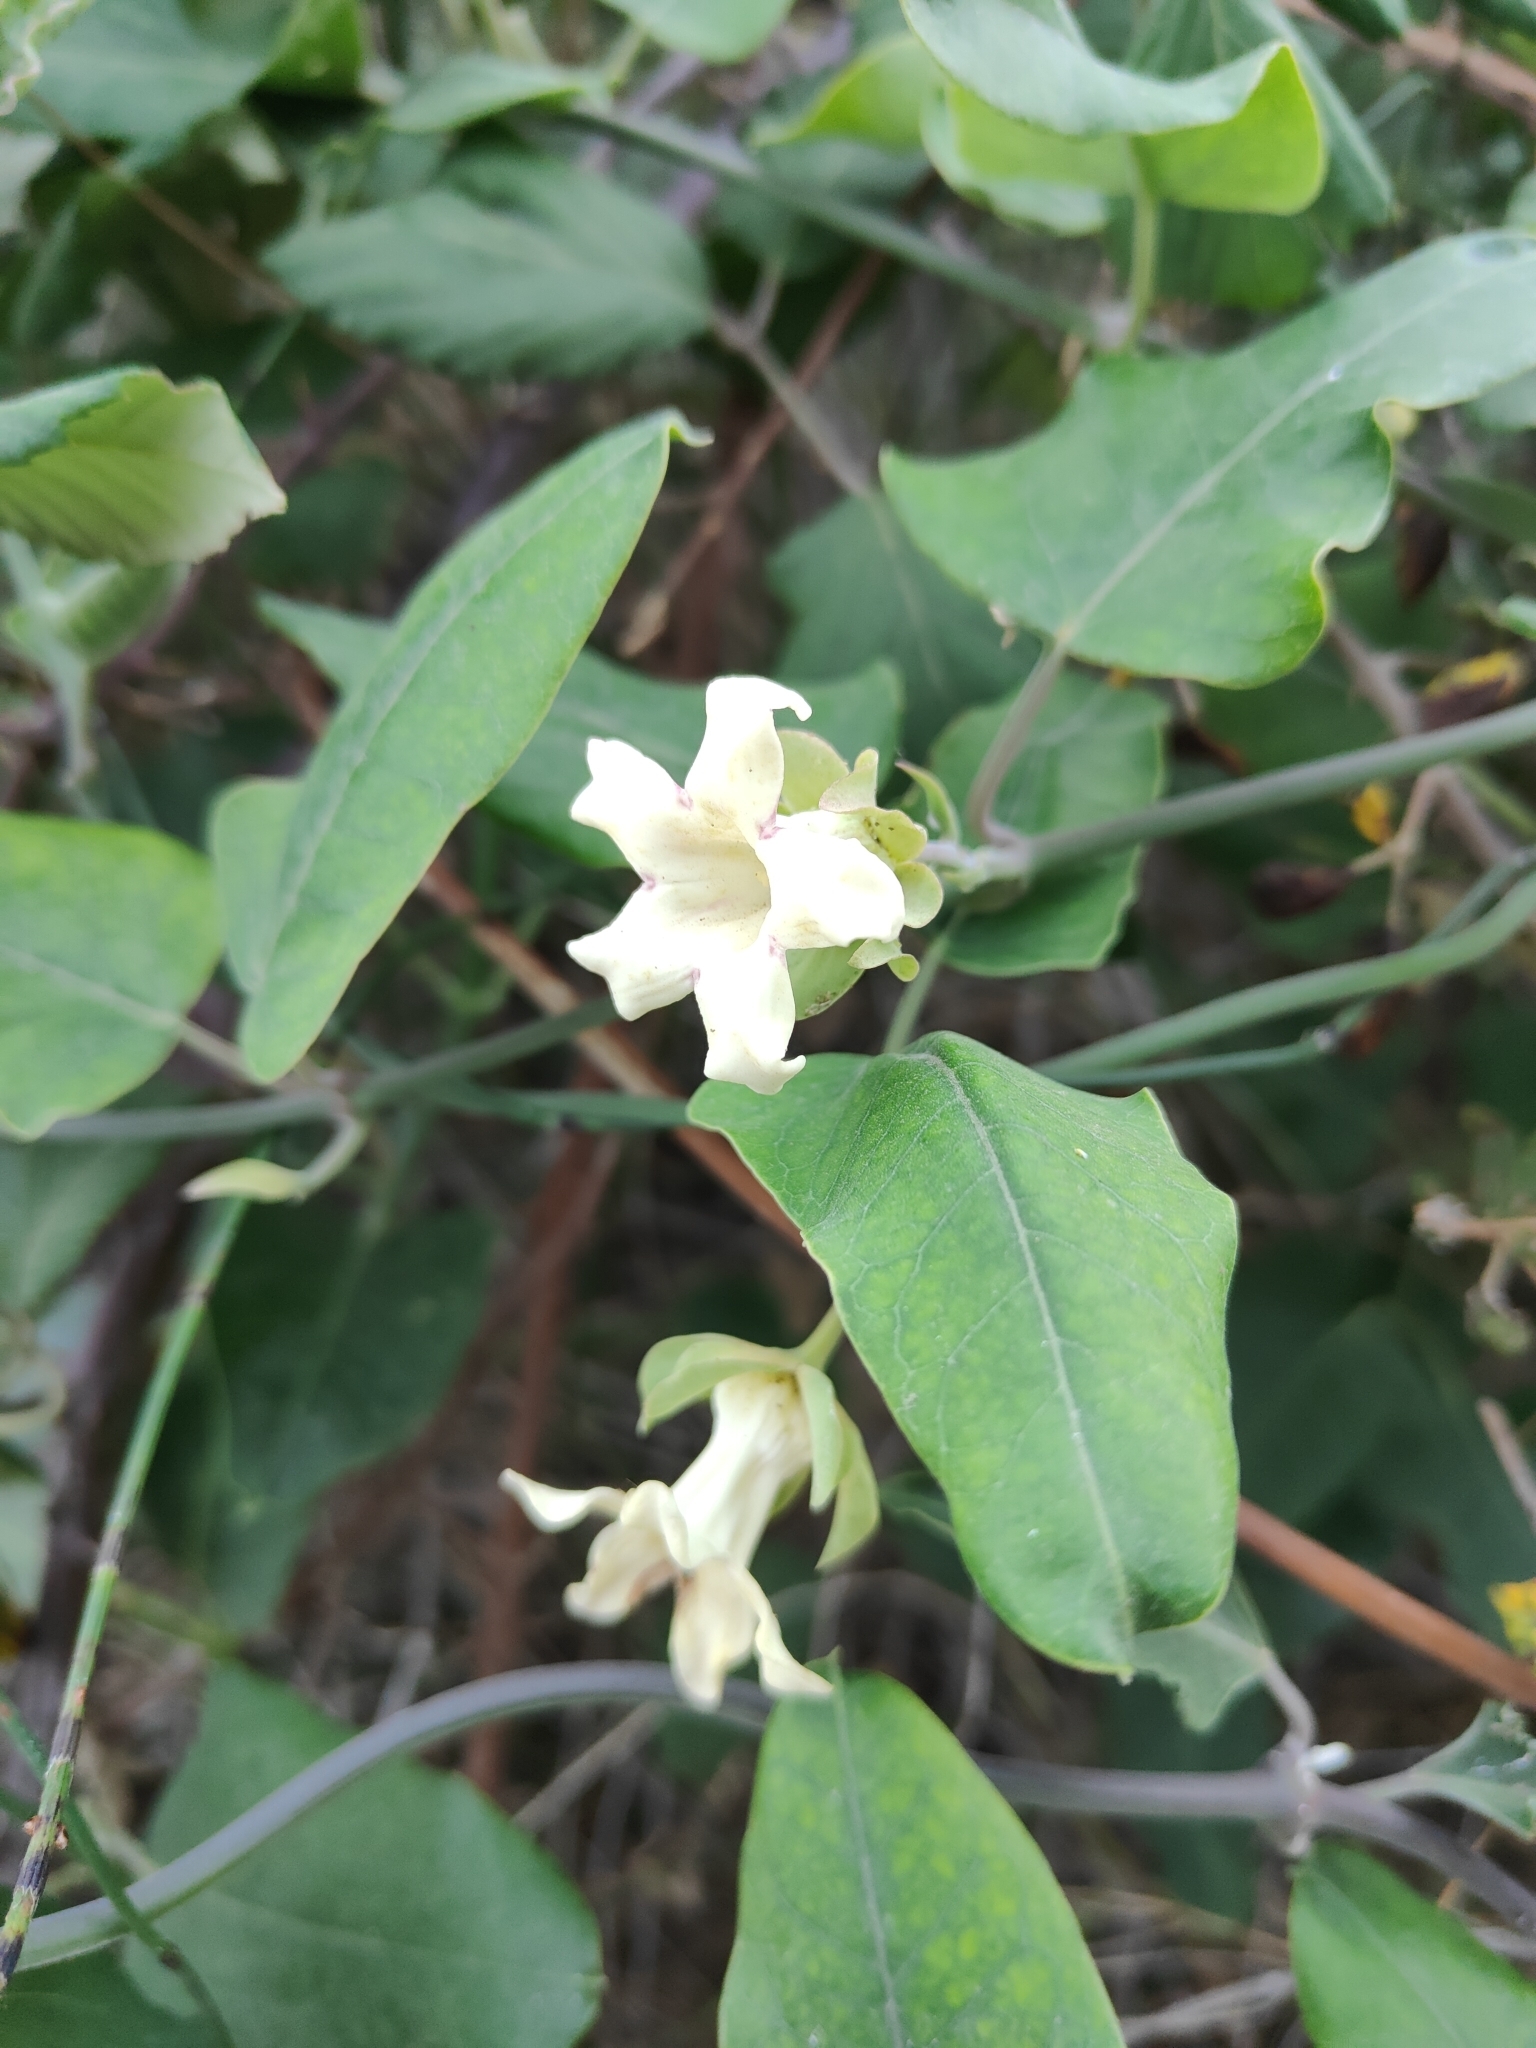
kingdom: Plantae
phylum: Tracheophyta
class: Magnoliopsida
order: Gentianales
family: Apocynaceae
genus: Araujia
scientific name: Araujia sericifera
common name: White bladderflower
